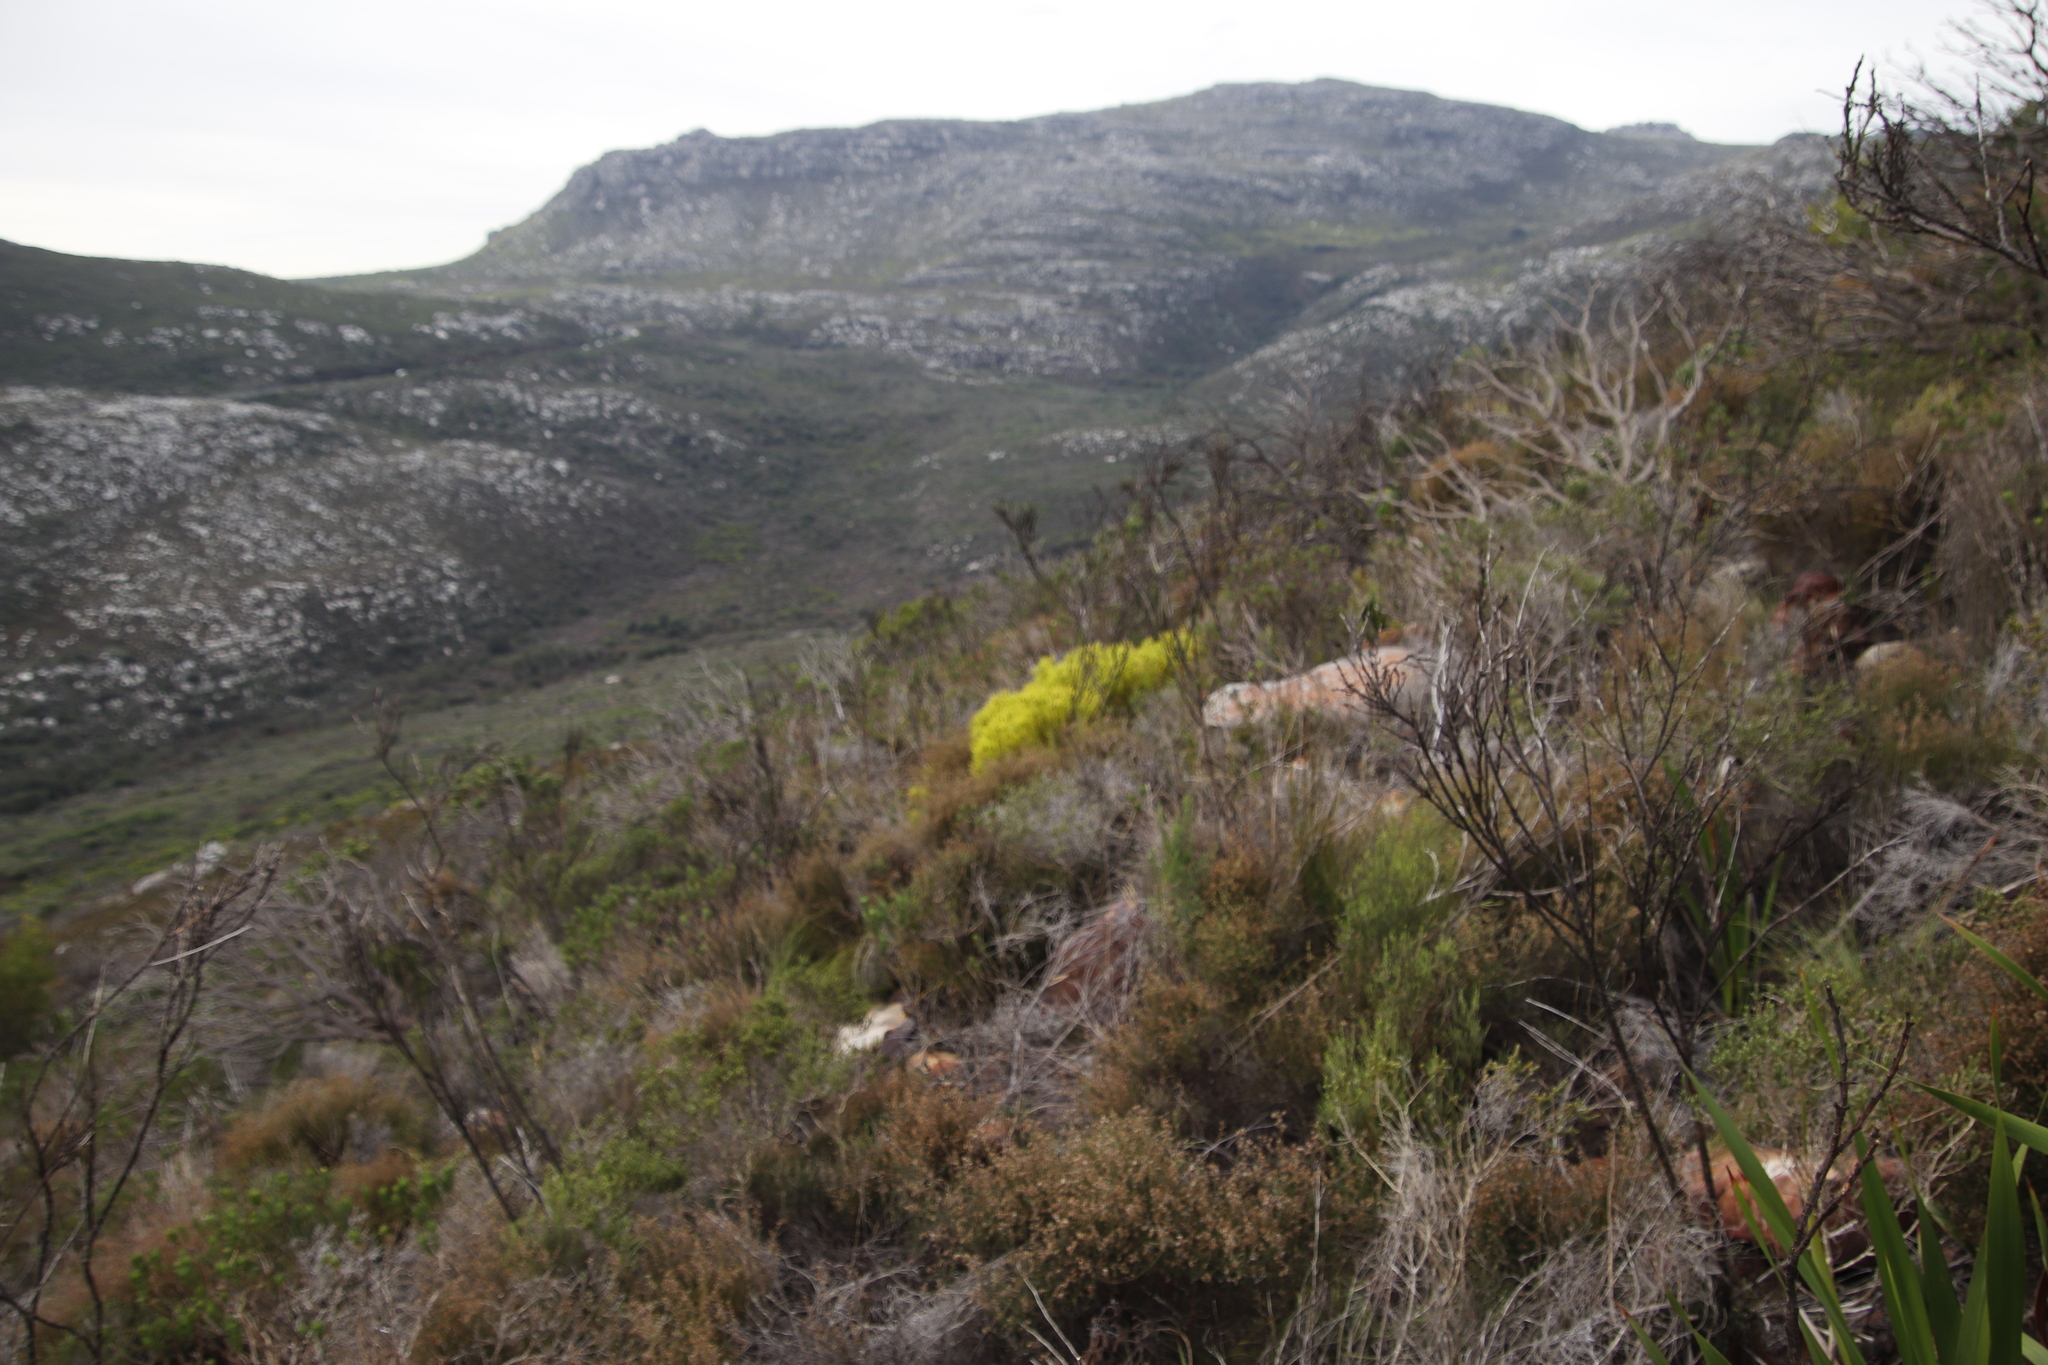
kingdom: Plantae
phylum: Tracheophyta
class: Magnoliopsida
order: Proteales
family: Proteaceae
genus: Leucadendron
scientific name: Leucadendron salignum
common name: Common sunshine conebush
